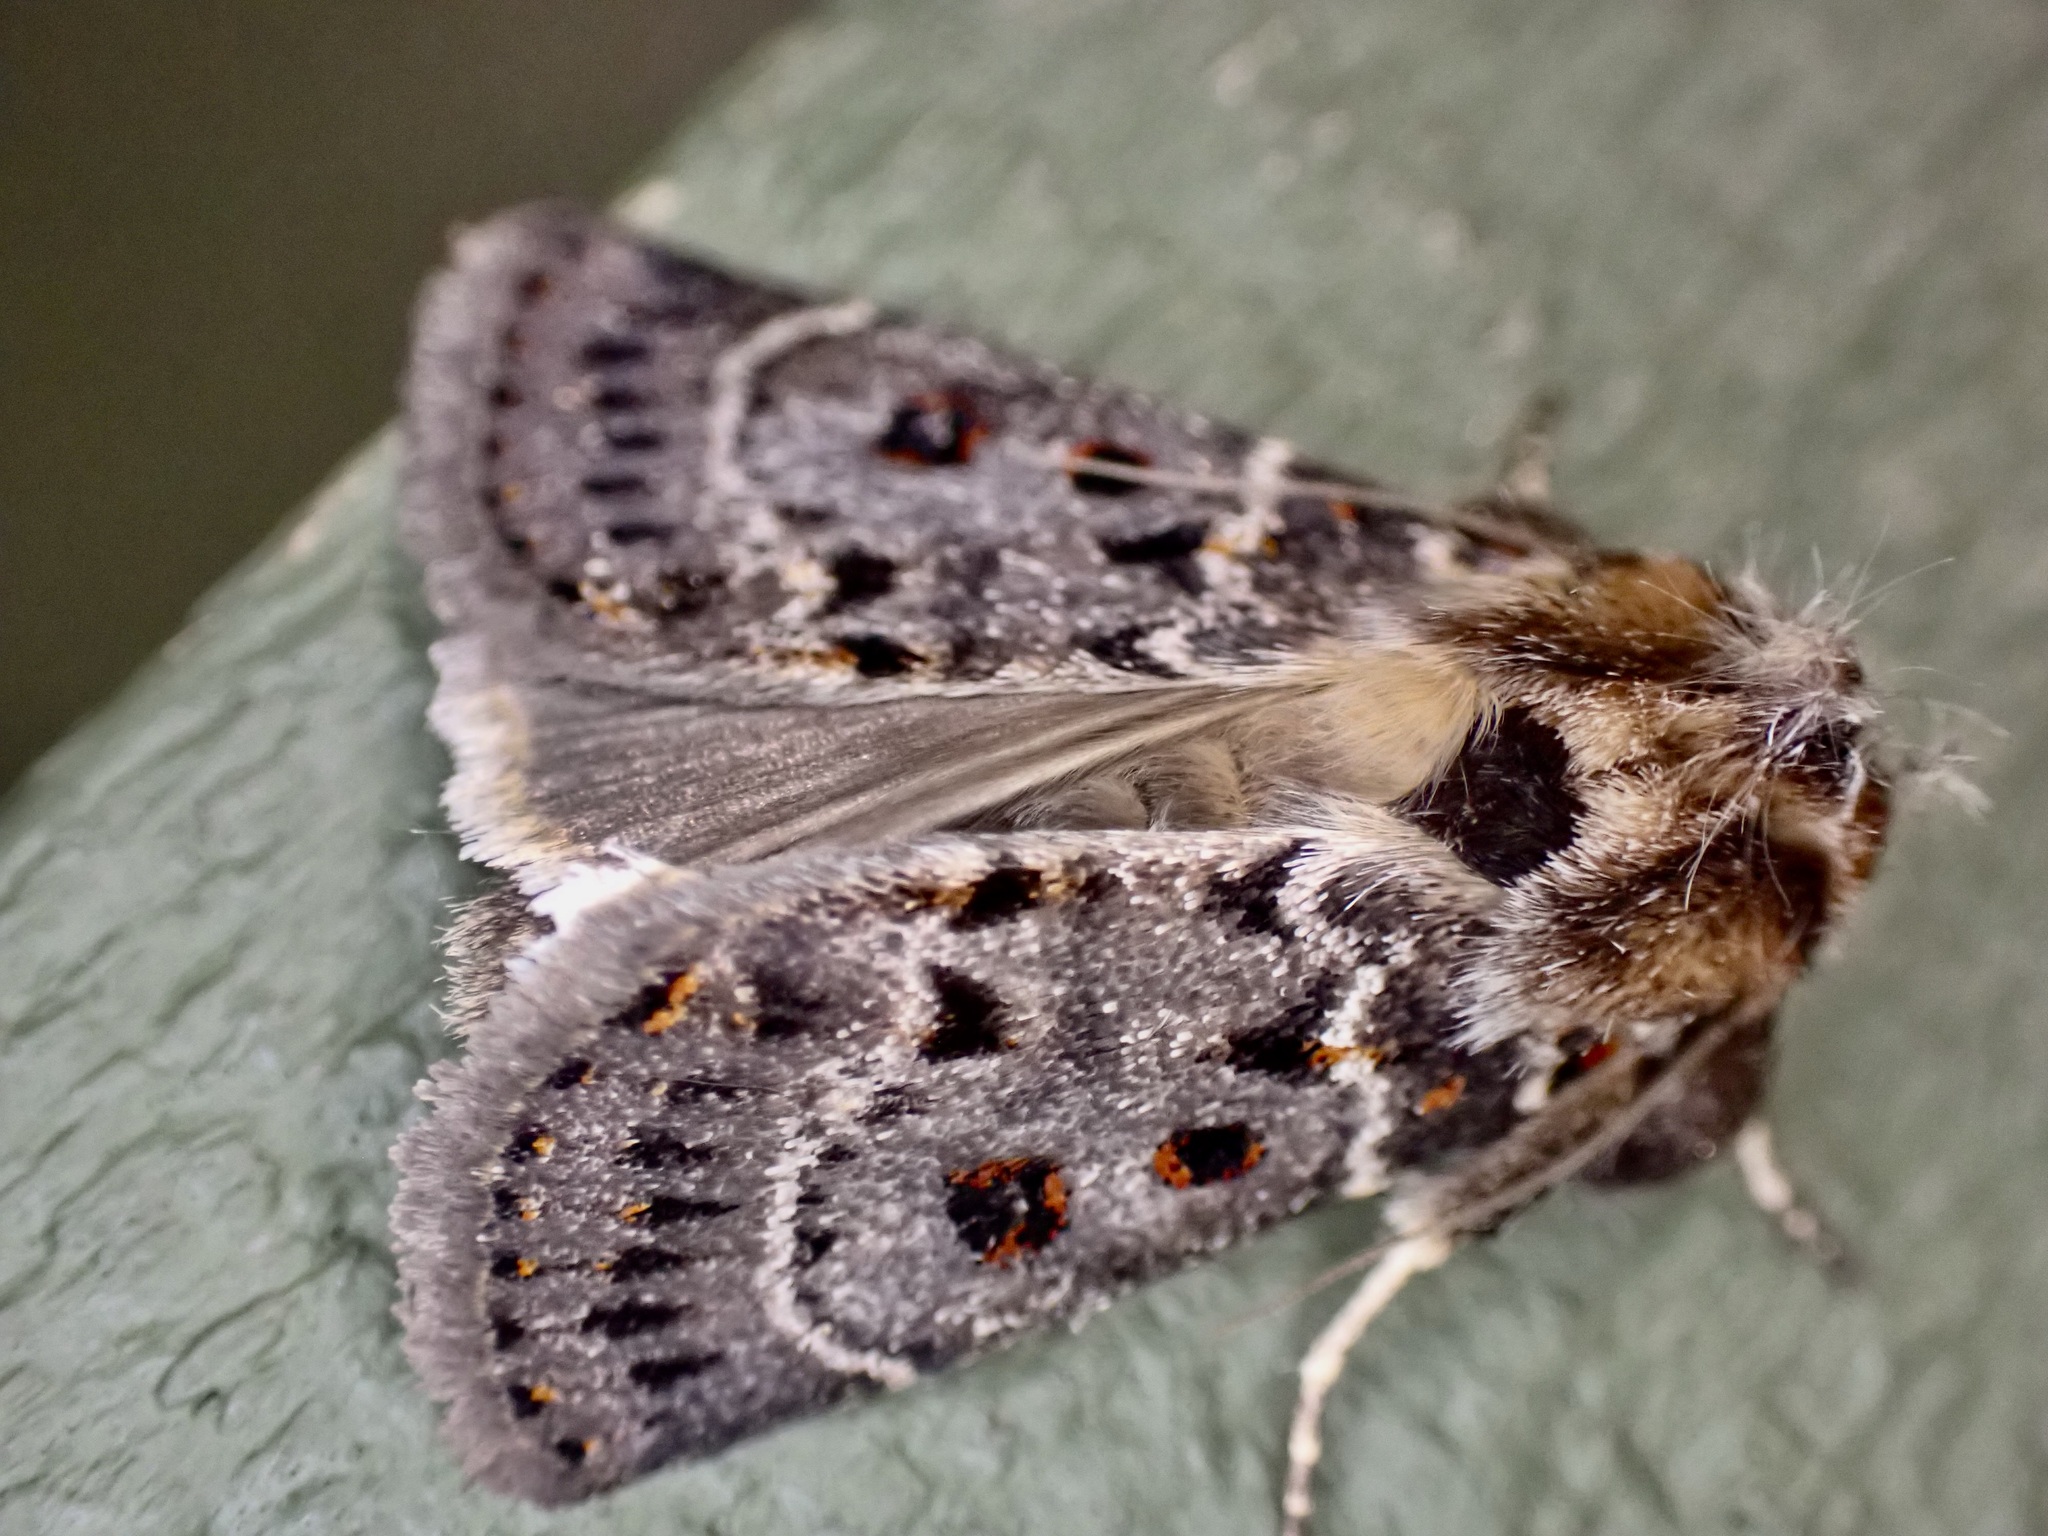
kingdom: Animalia
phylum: Arthropoda
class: Insecta
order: Lepidoptera
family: Noctuidae
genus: Proteuxoa
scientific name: Proteuxoa sanguinipuncta
